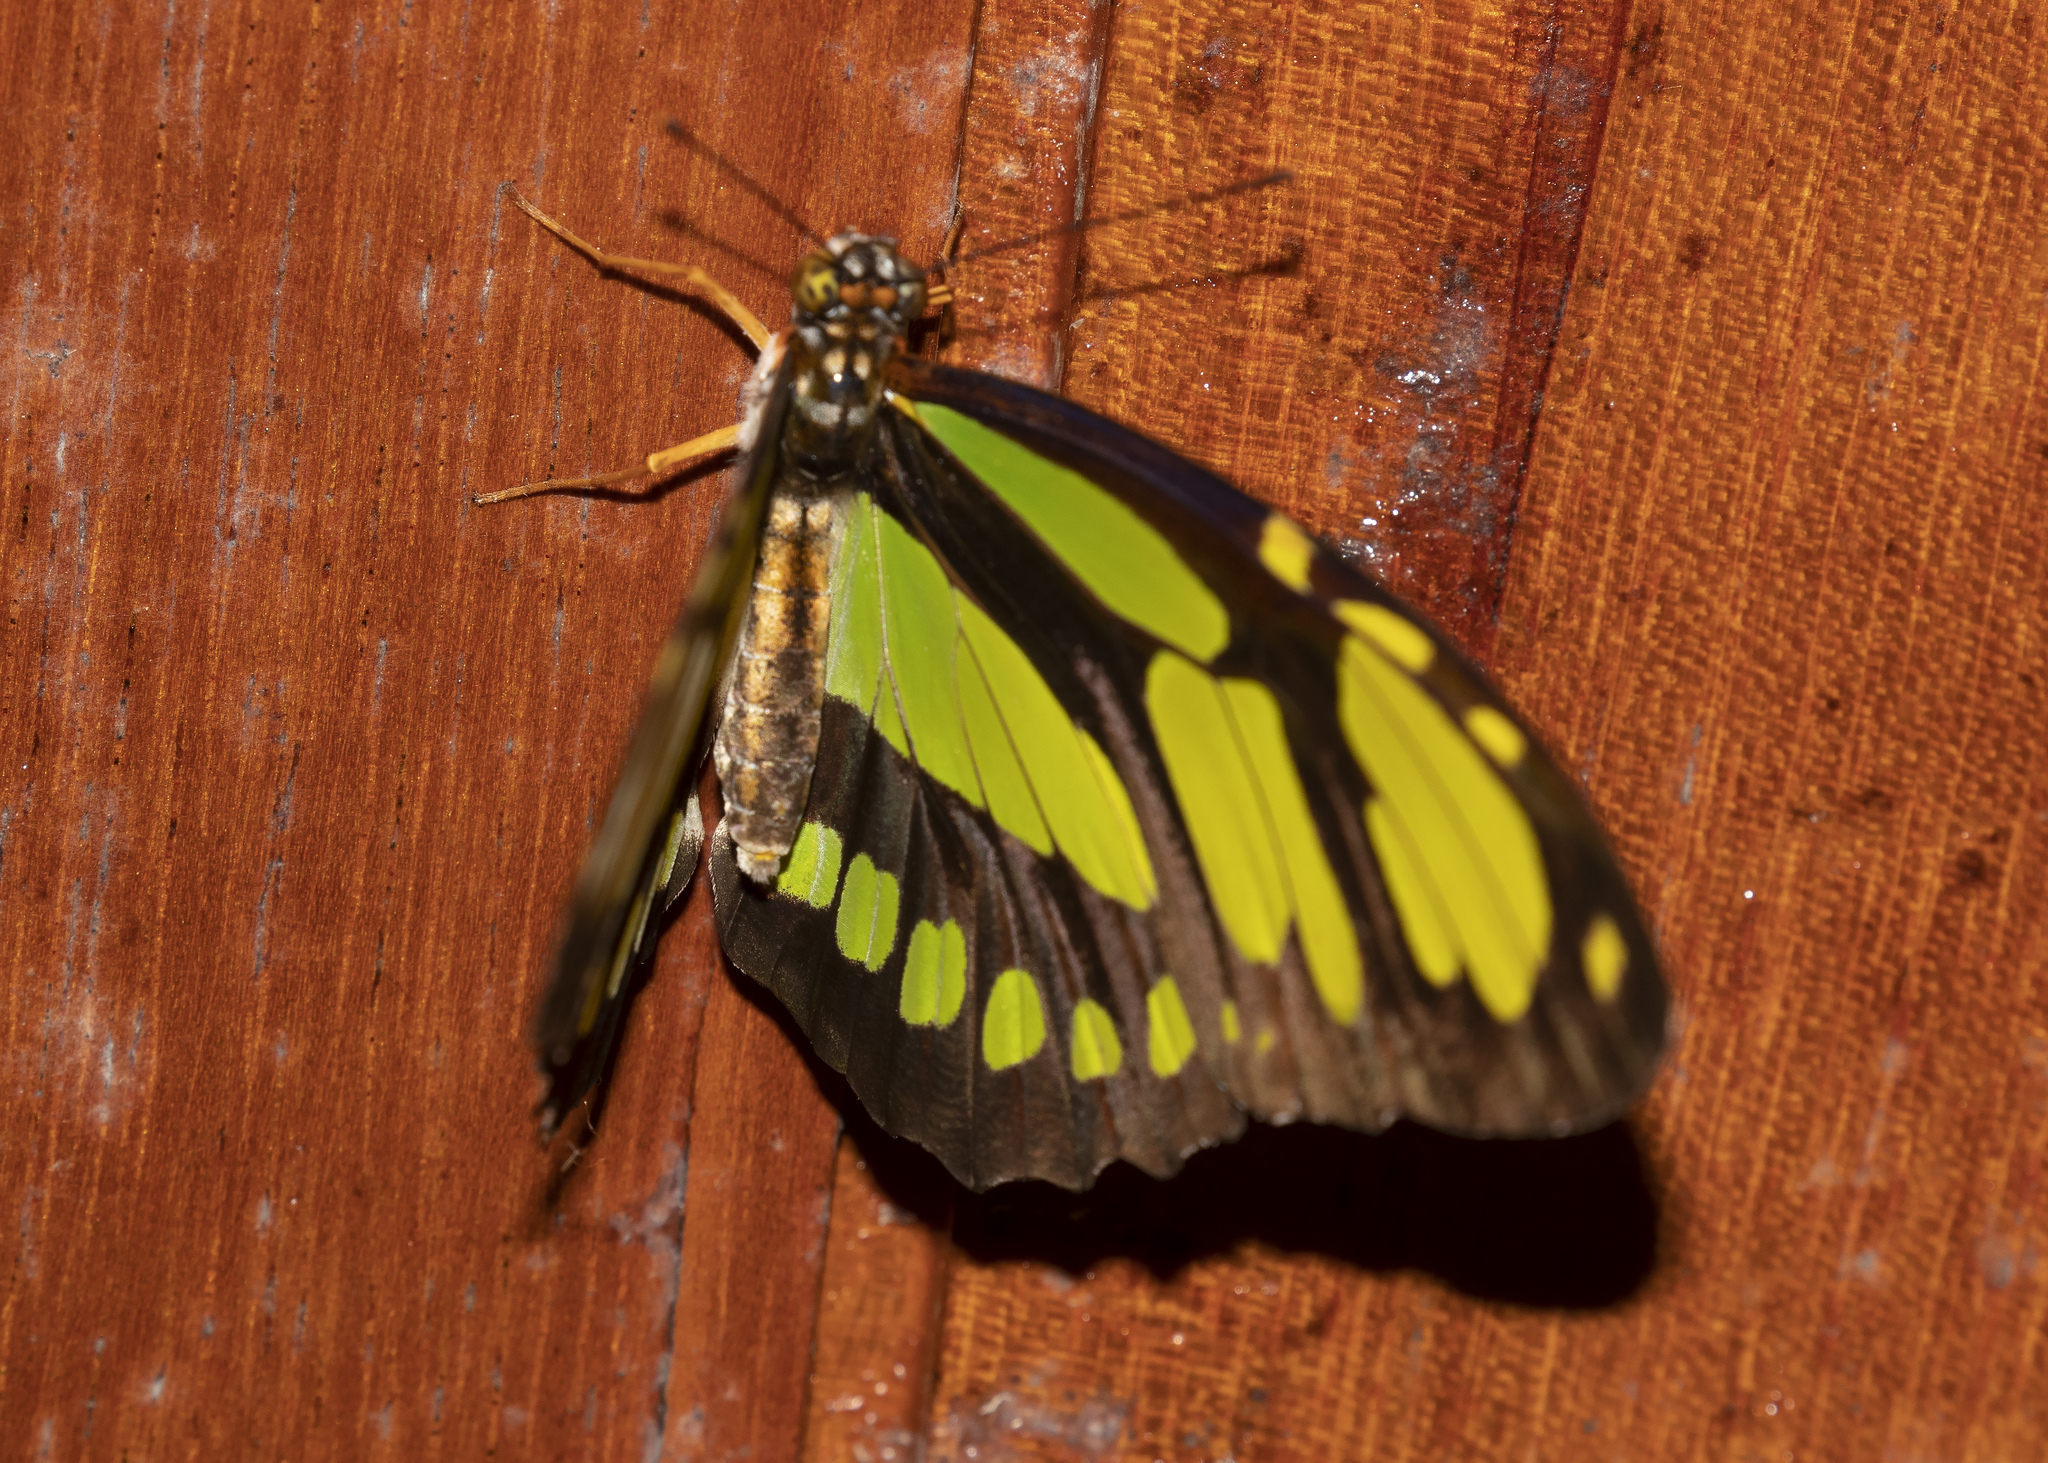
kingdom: Animalia
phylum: Arthropoda
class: Insecta
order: Lepidoptera
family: Nymphalidae
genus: Philaethria
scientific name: Philaethria dido
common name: Scarce bamboo page
